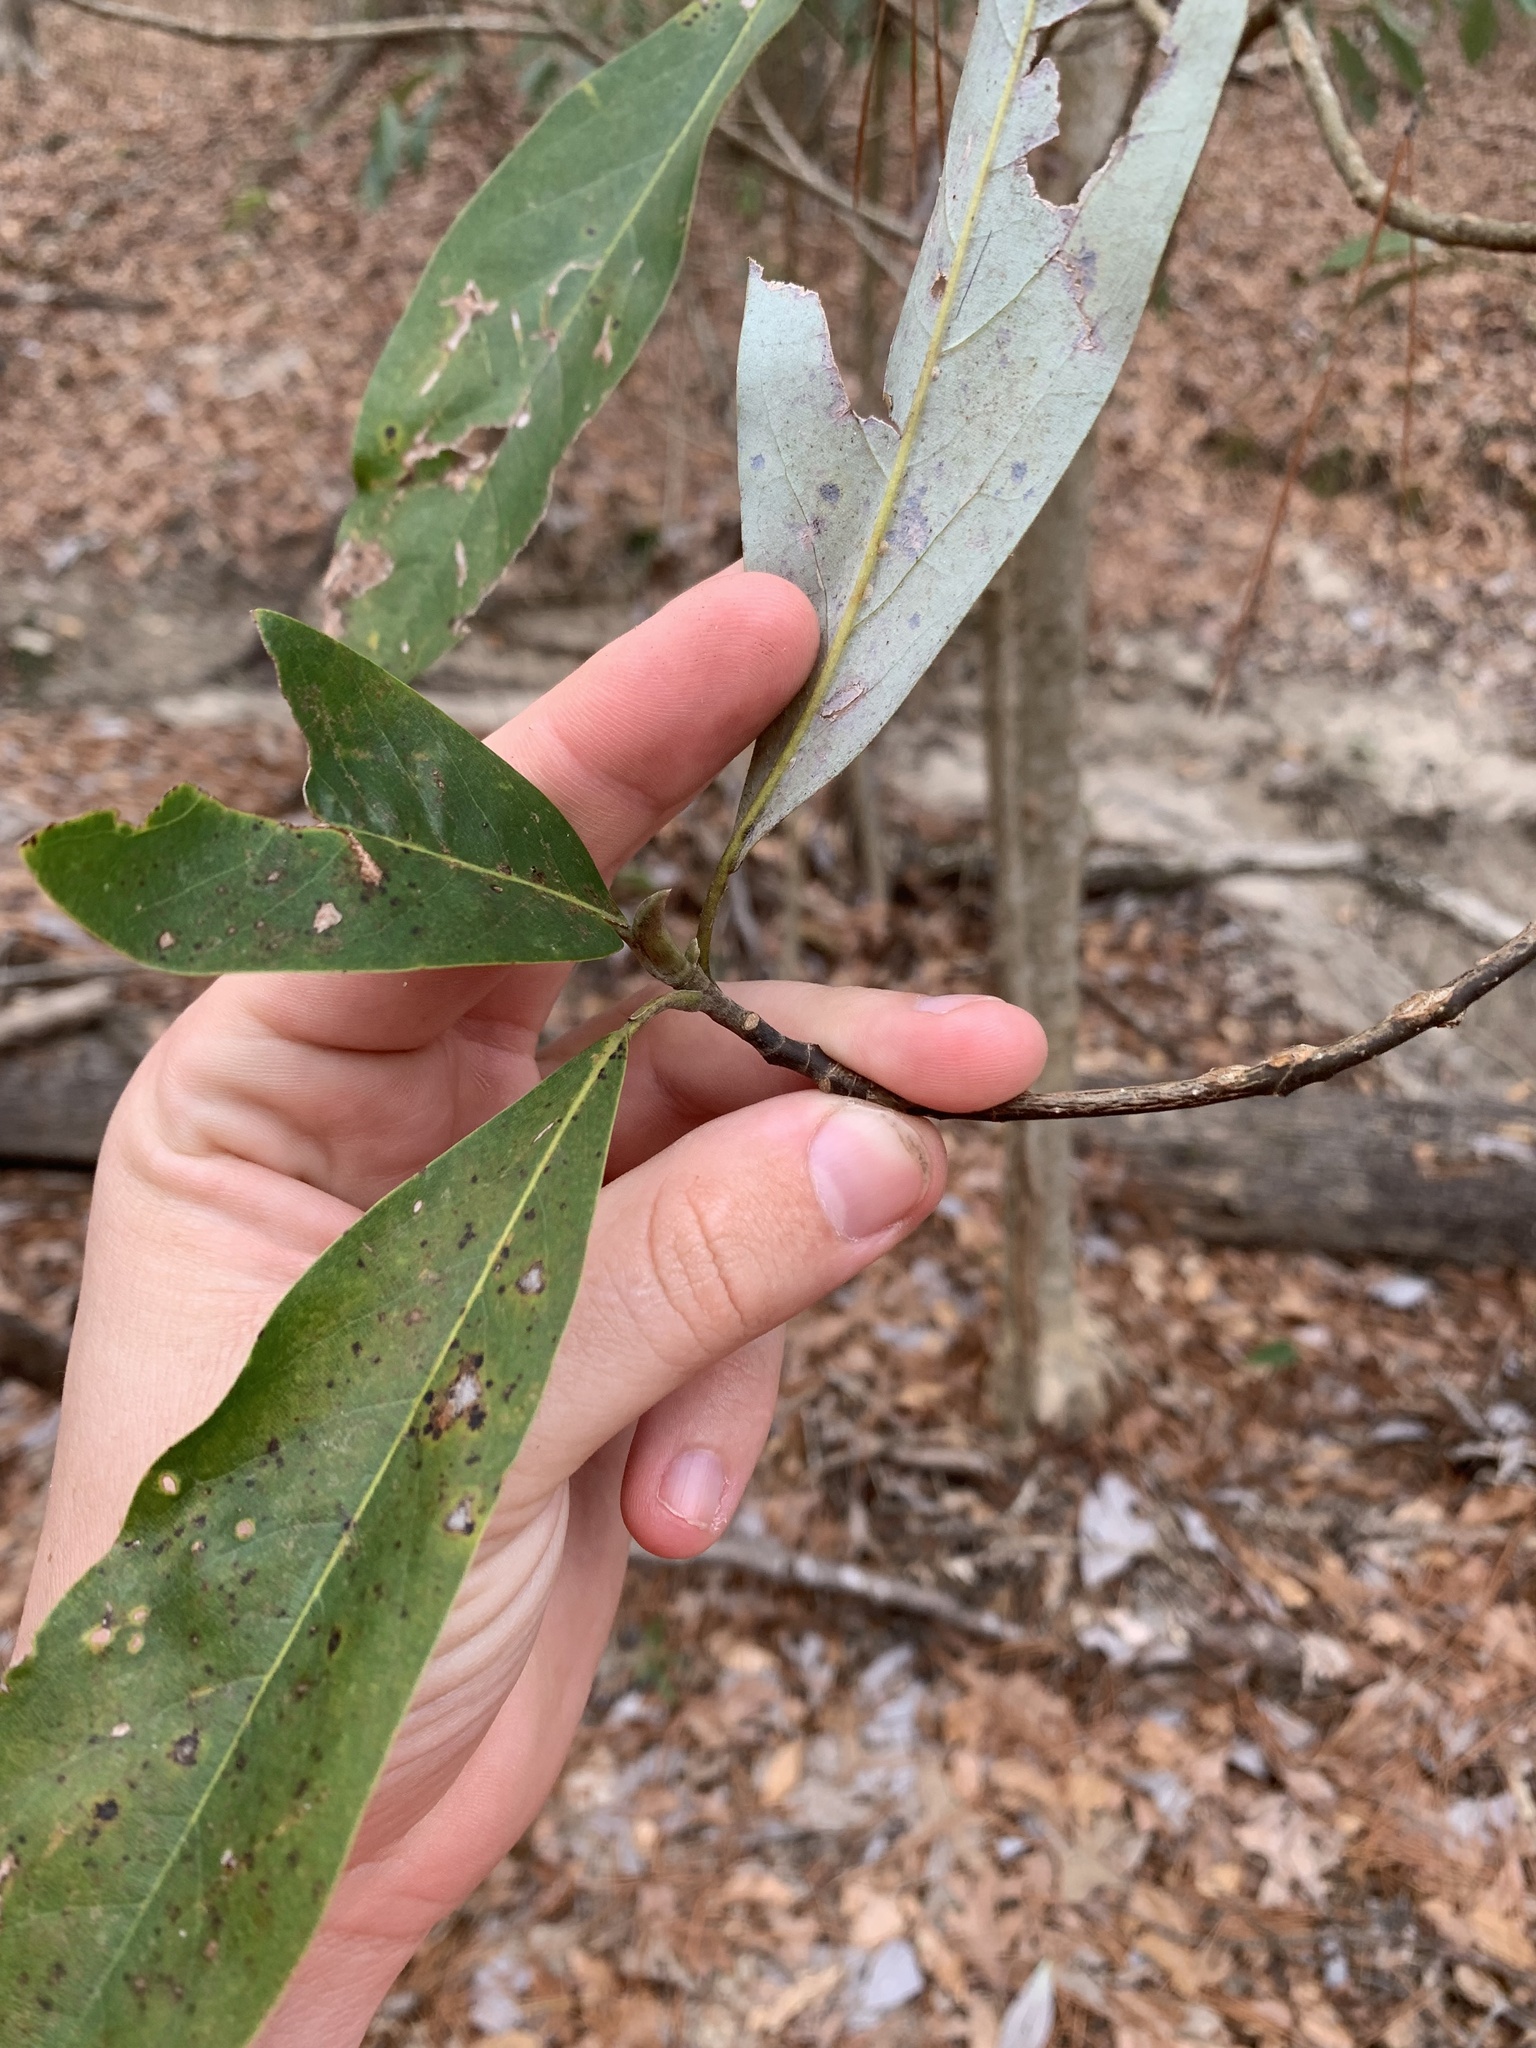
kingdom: Plantae
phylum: Tracheophyta
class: Magnoliopsida
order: Magnoliales
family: Magnoliaceae
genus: Magnolia
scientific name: Magnolia virginiana
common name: Swamp bay
